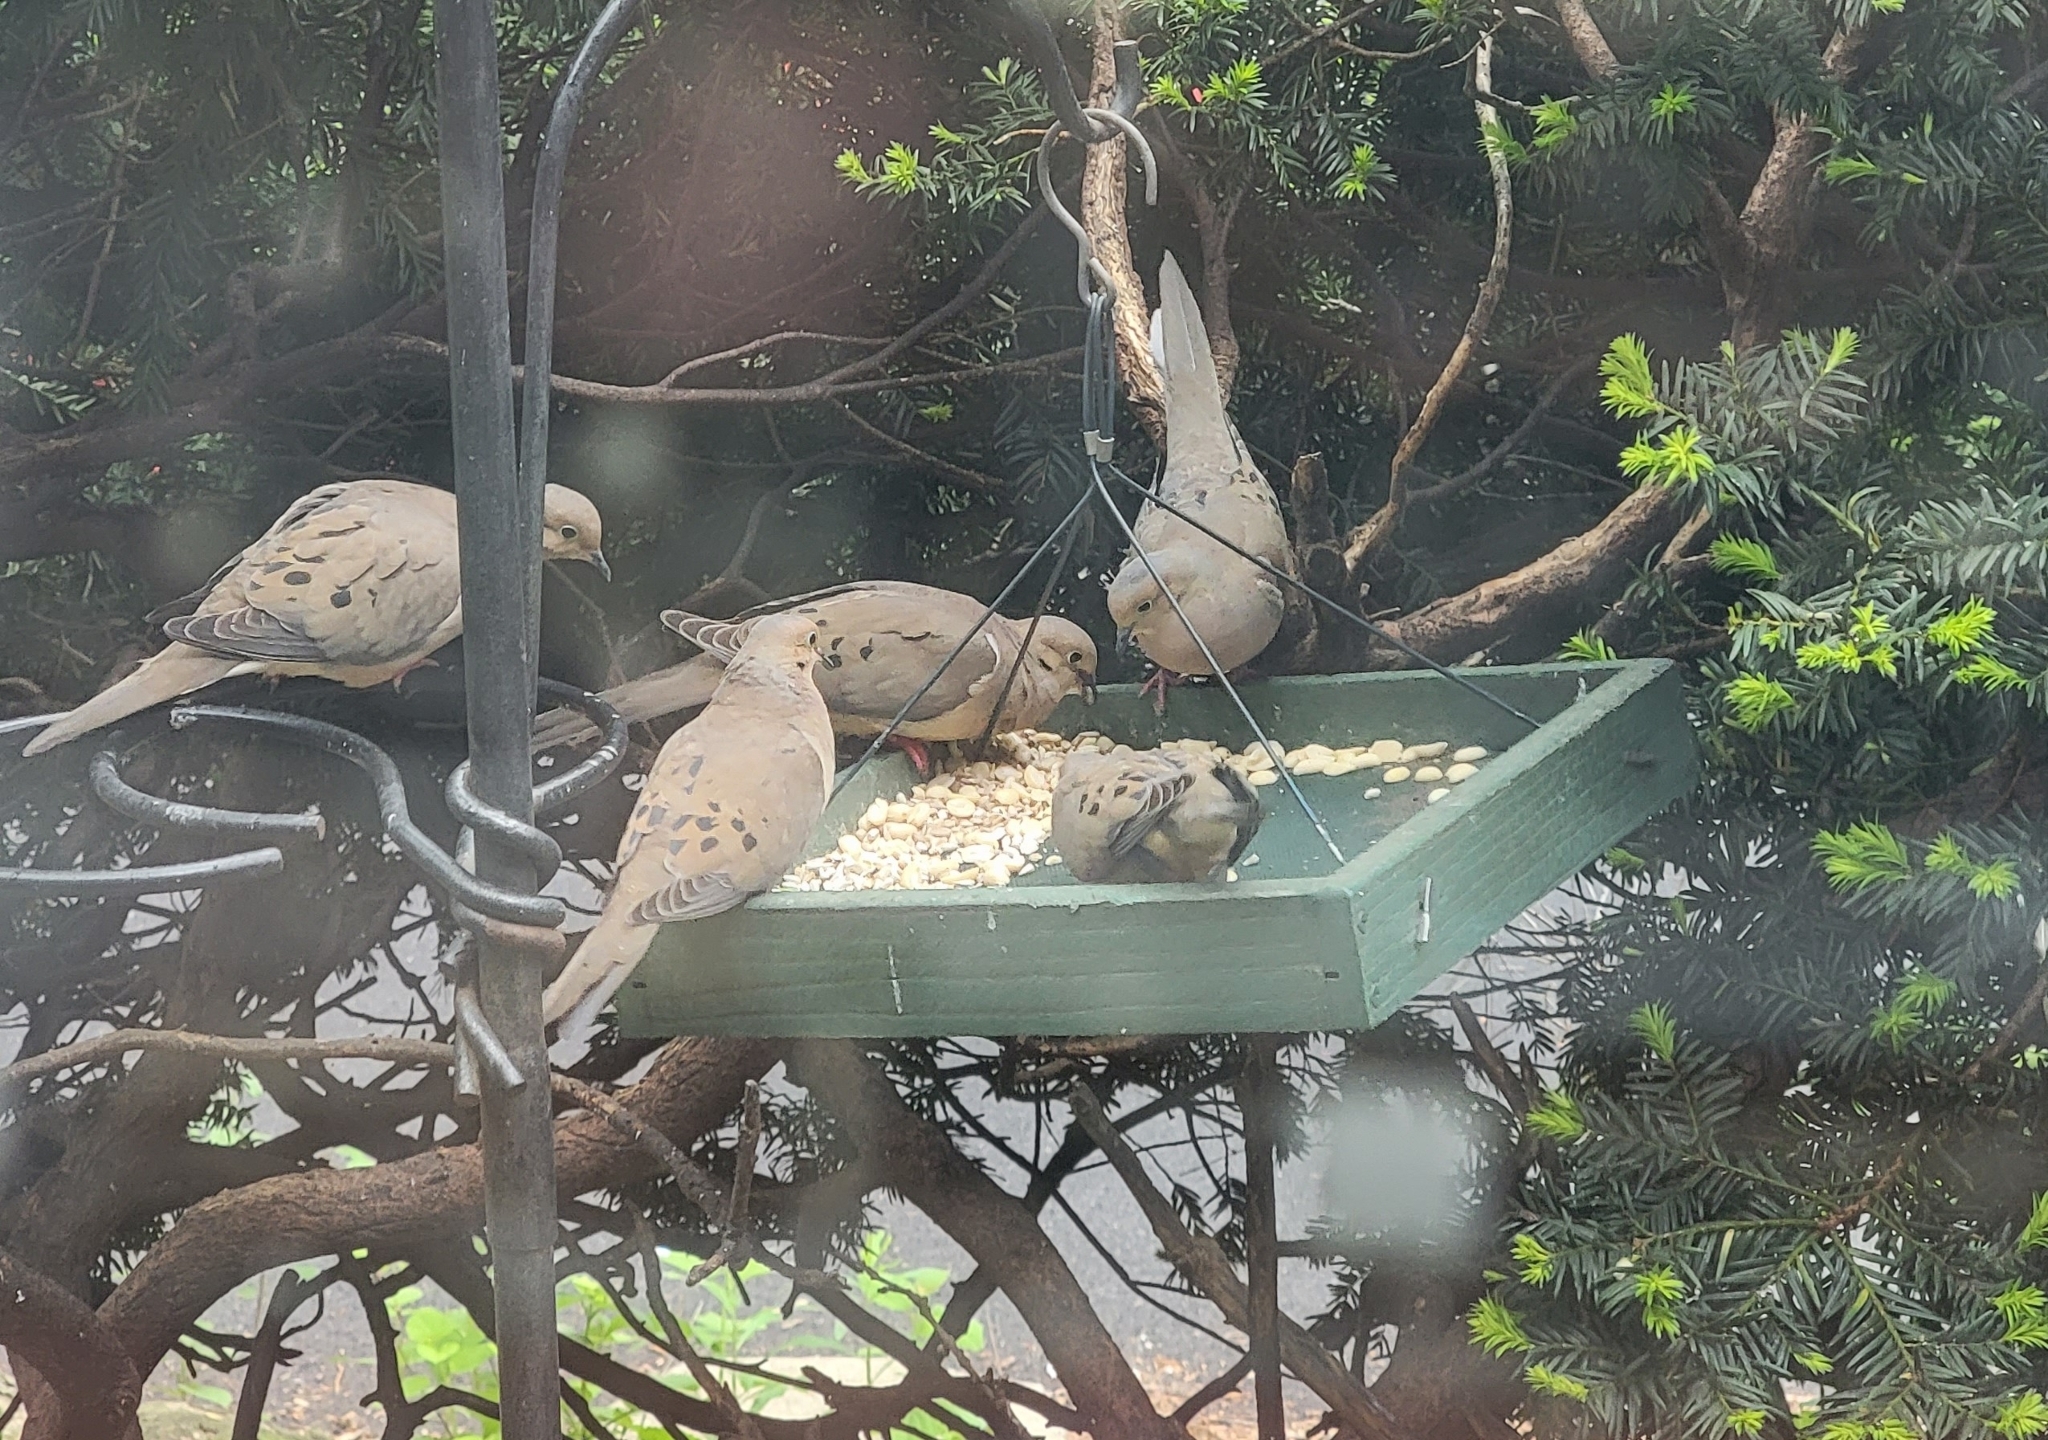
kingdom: Animalia
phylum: Chordata
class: Aves
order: Columbiformes
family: Columbidae
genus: Zenaida
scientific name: Zenaida macroura
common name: Mourning dove
